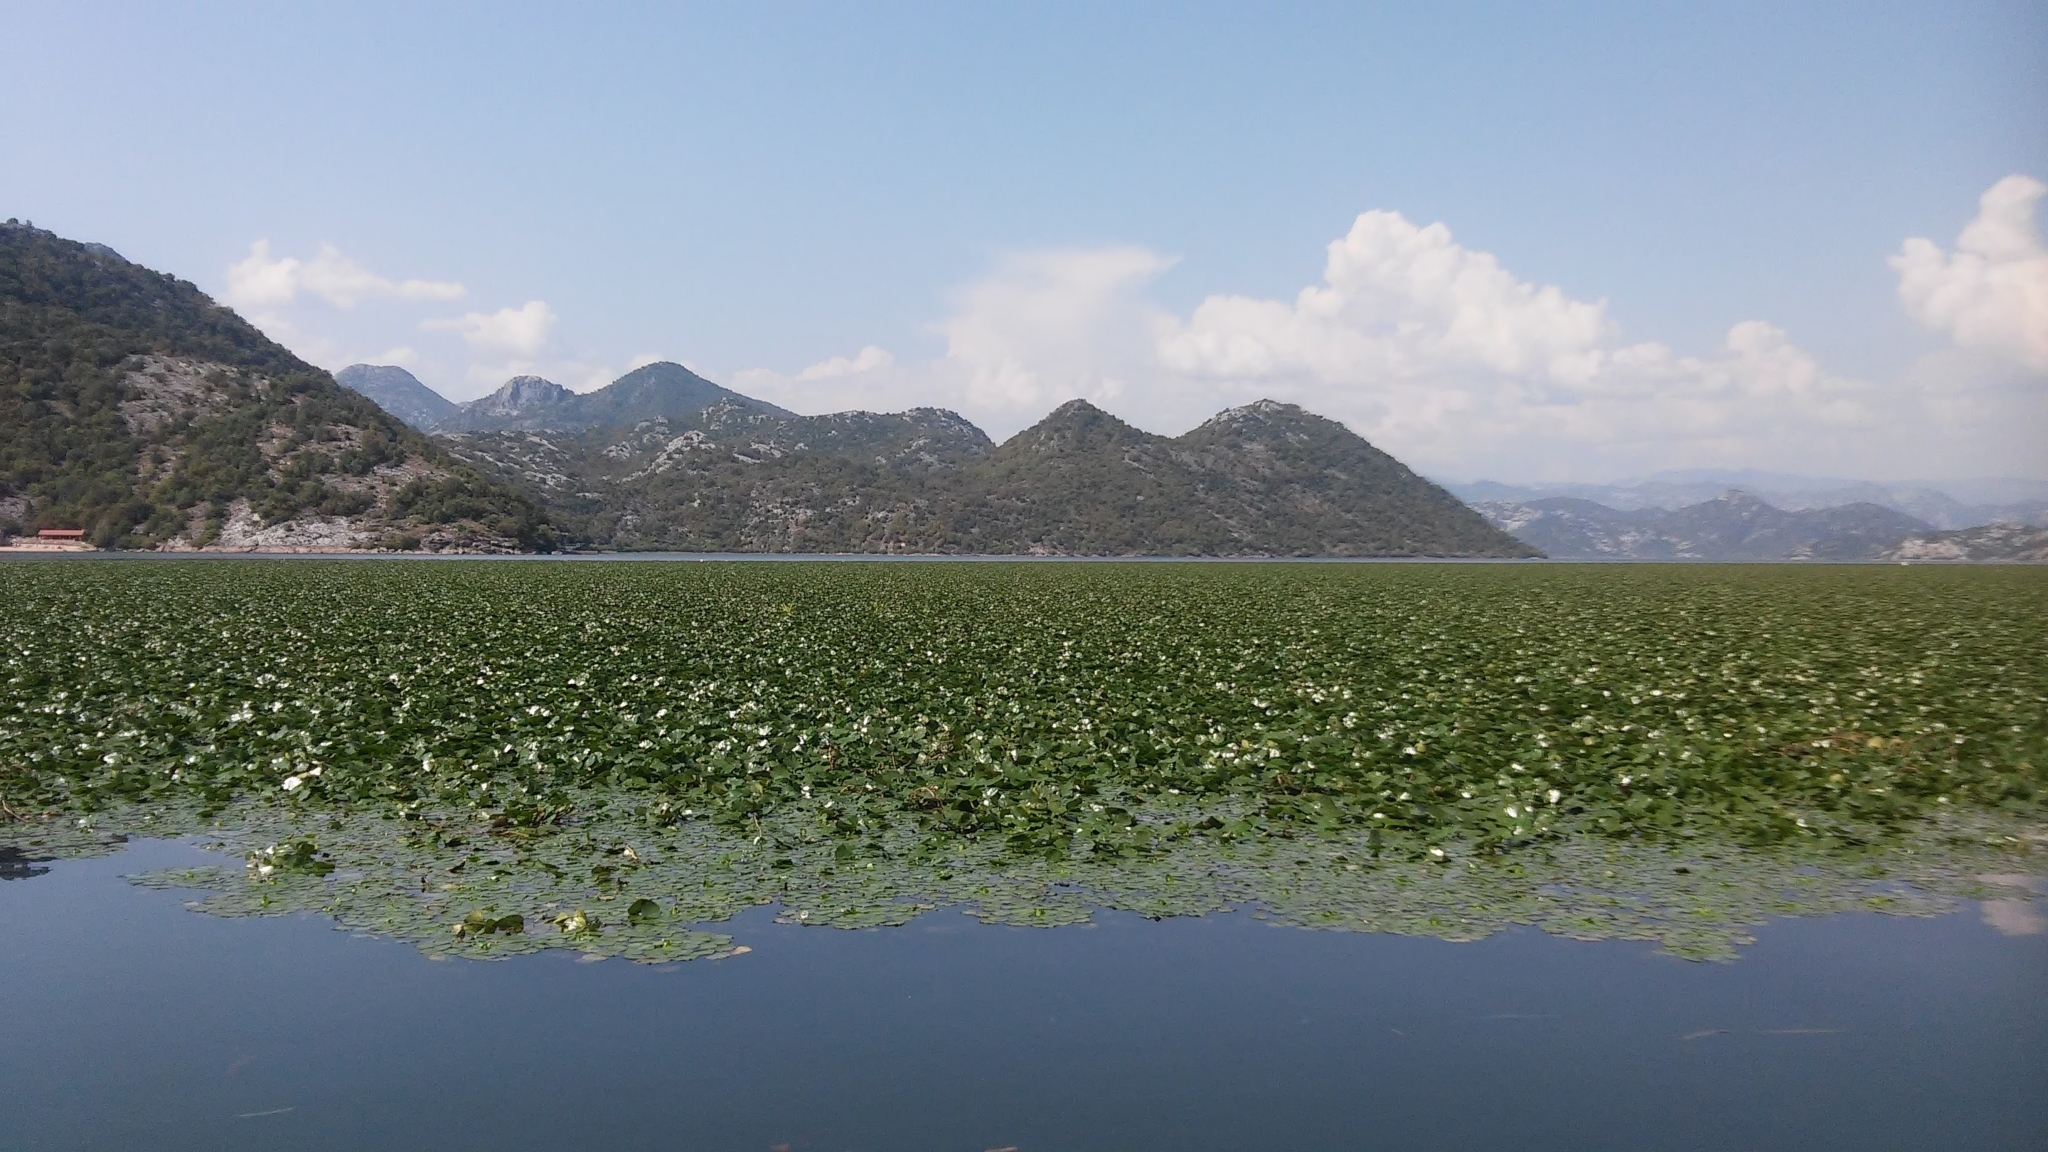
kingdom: Plantae
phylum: Tracheophyta
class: Magnoliopsida
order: Myrtales
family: Lythraceae
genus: Trapa
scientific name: Trapa natans
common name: Water chestnut
